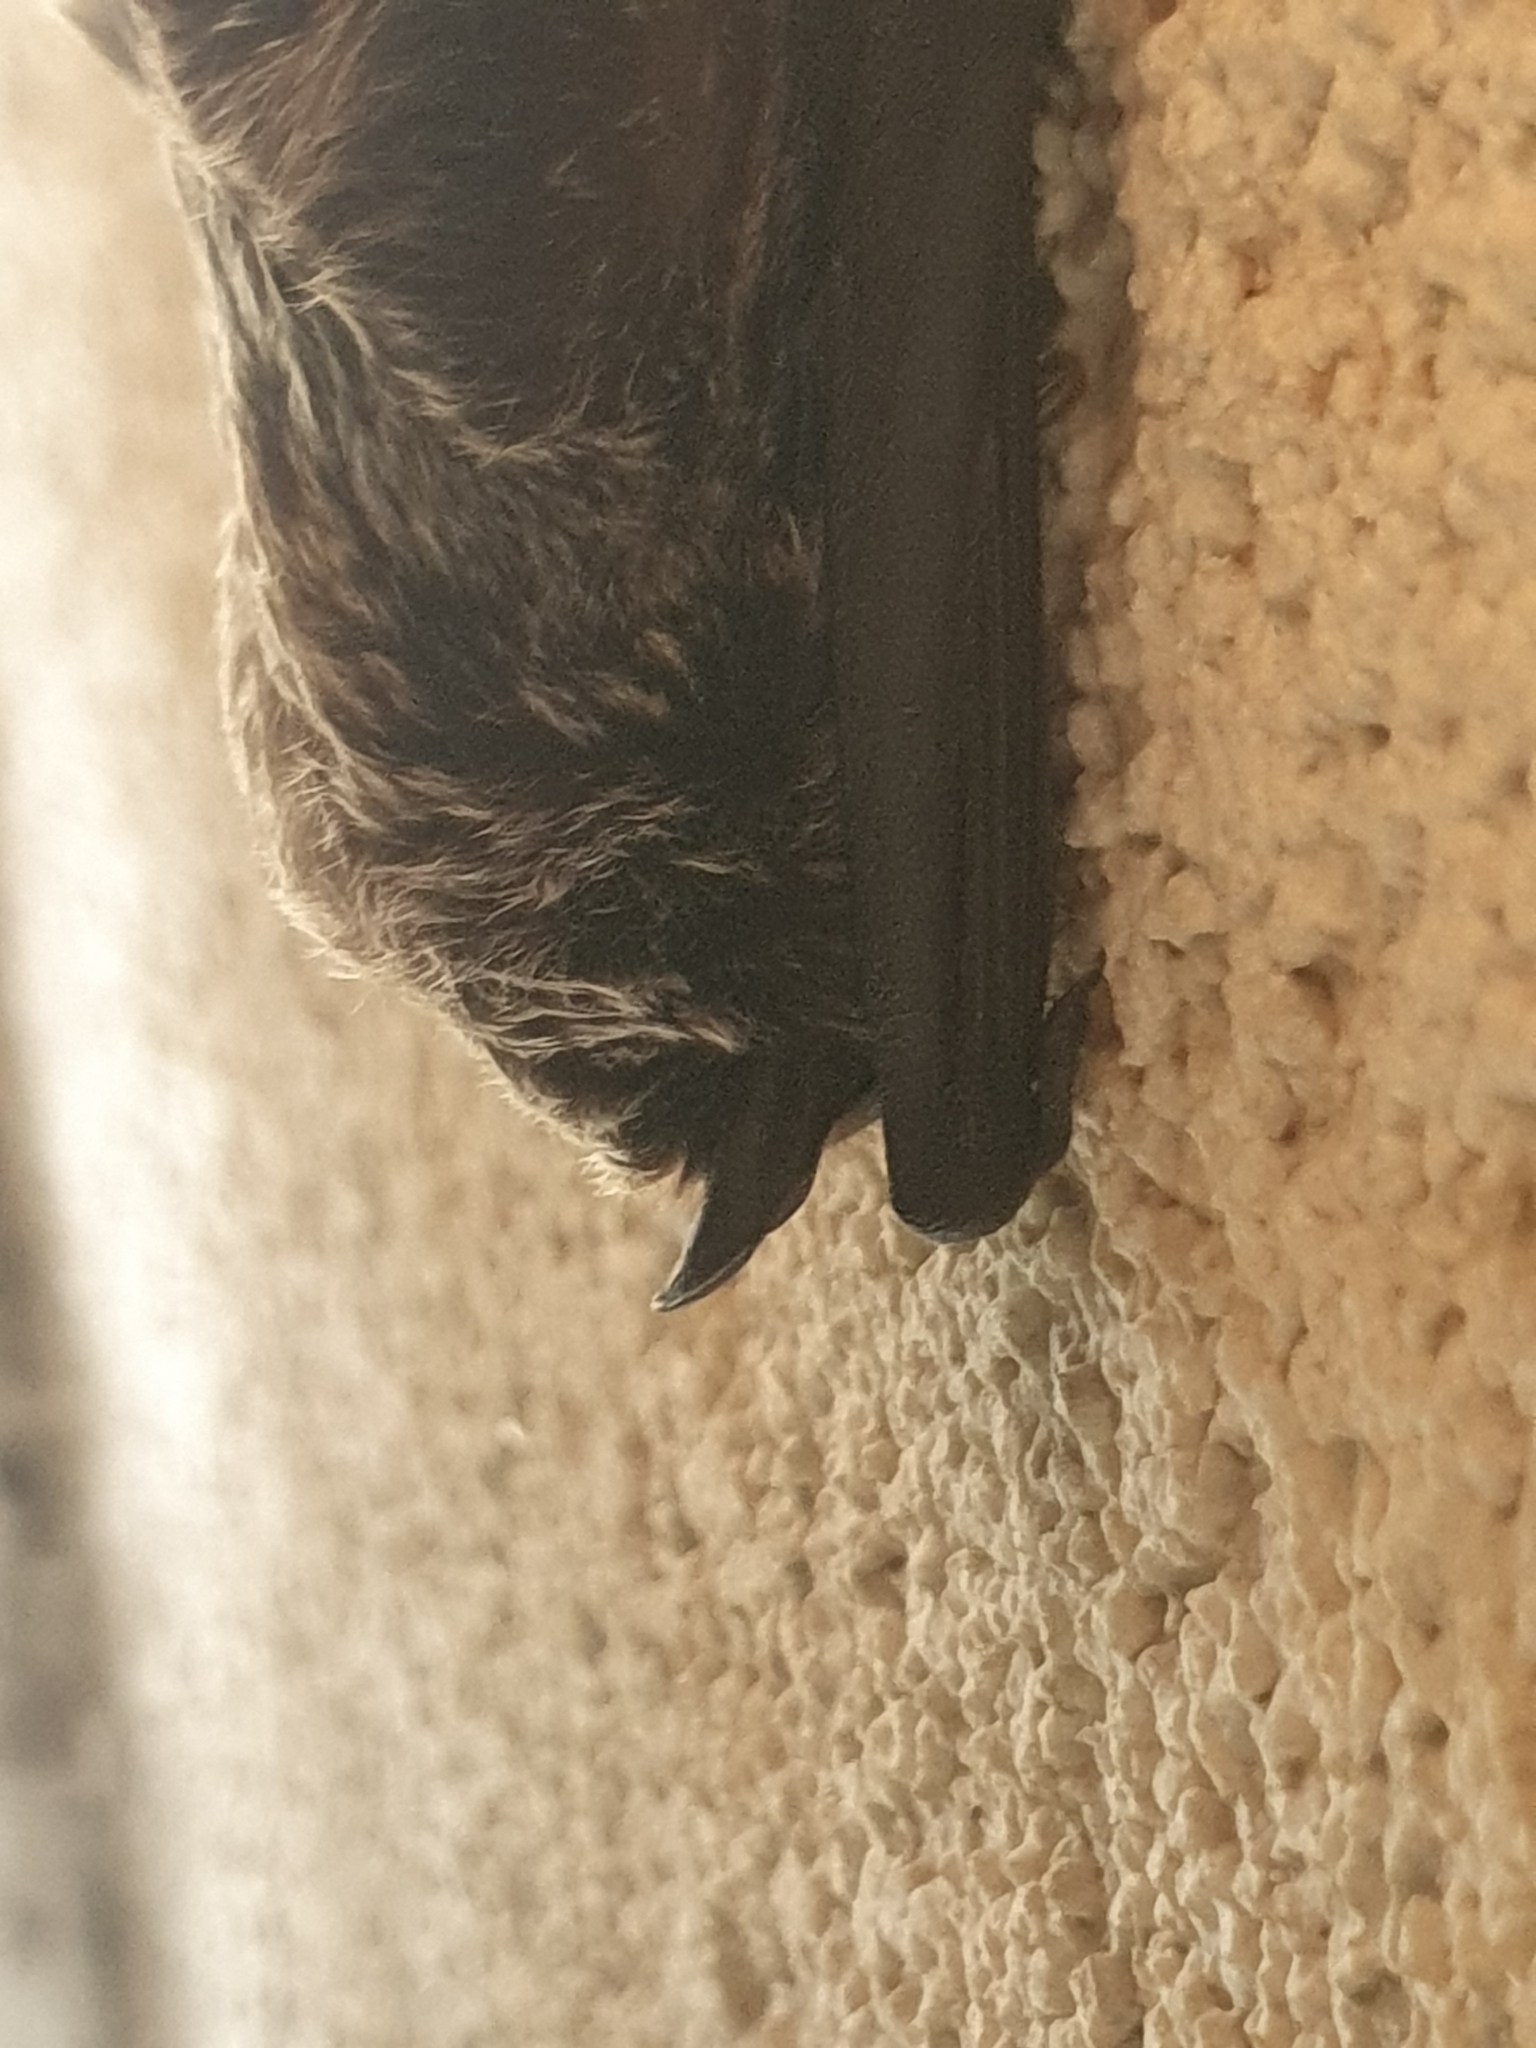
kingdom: Animalia
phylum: Chordata
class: Mammalia
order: Chiroptera
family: Vespertilionidae
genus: Vespertilio
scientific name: Vespertilio murinus
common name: Particolored bat
